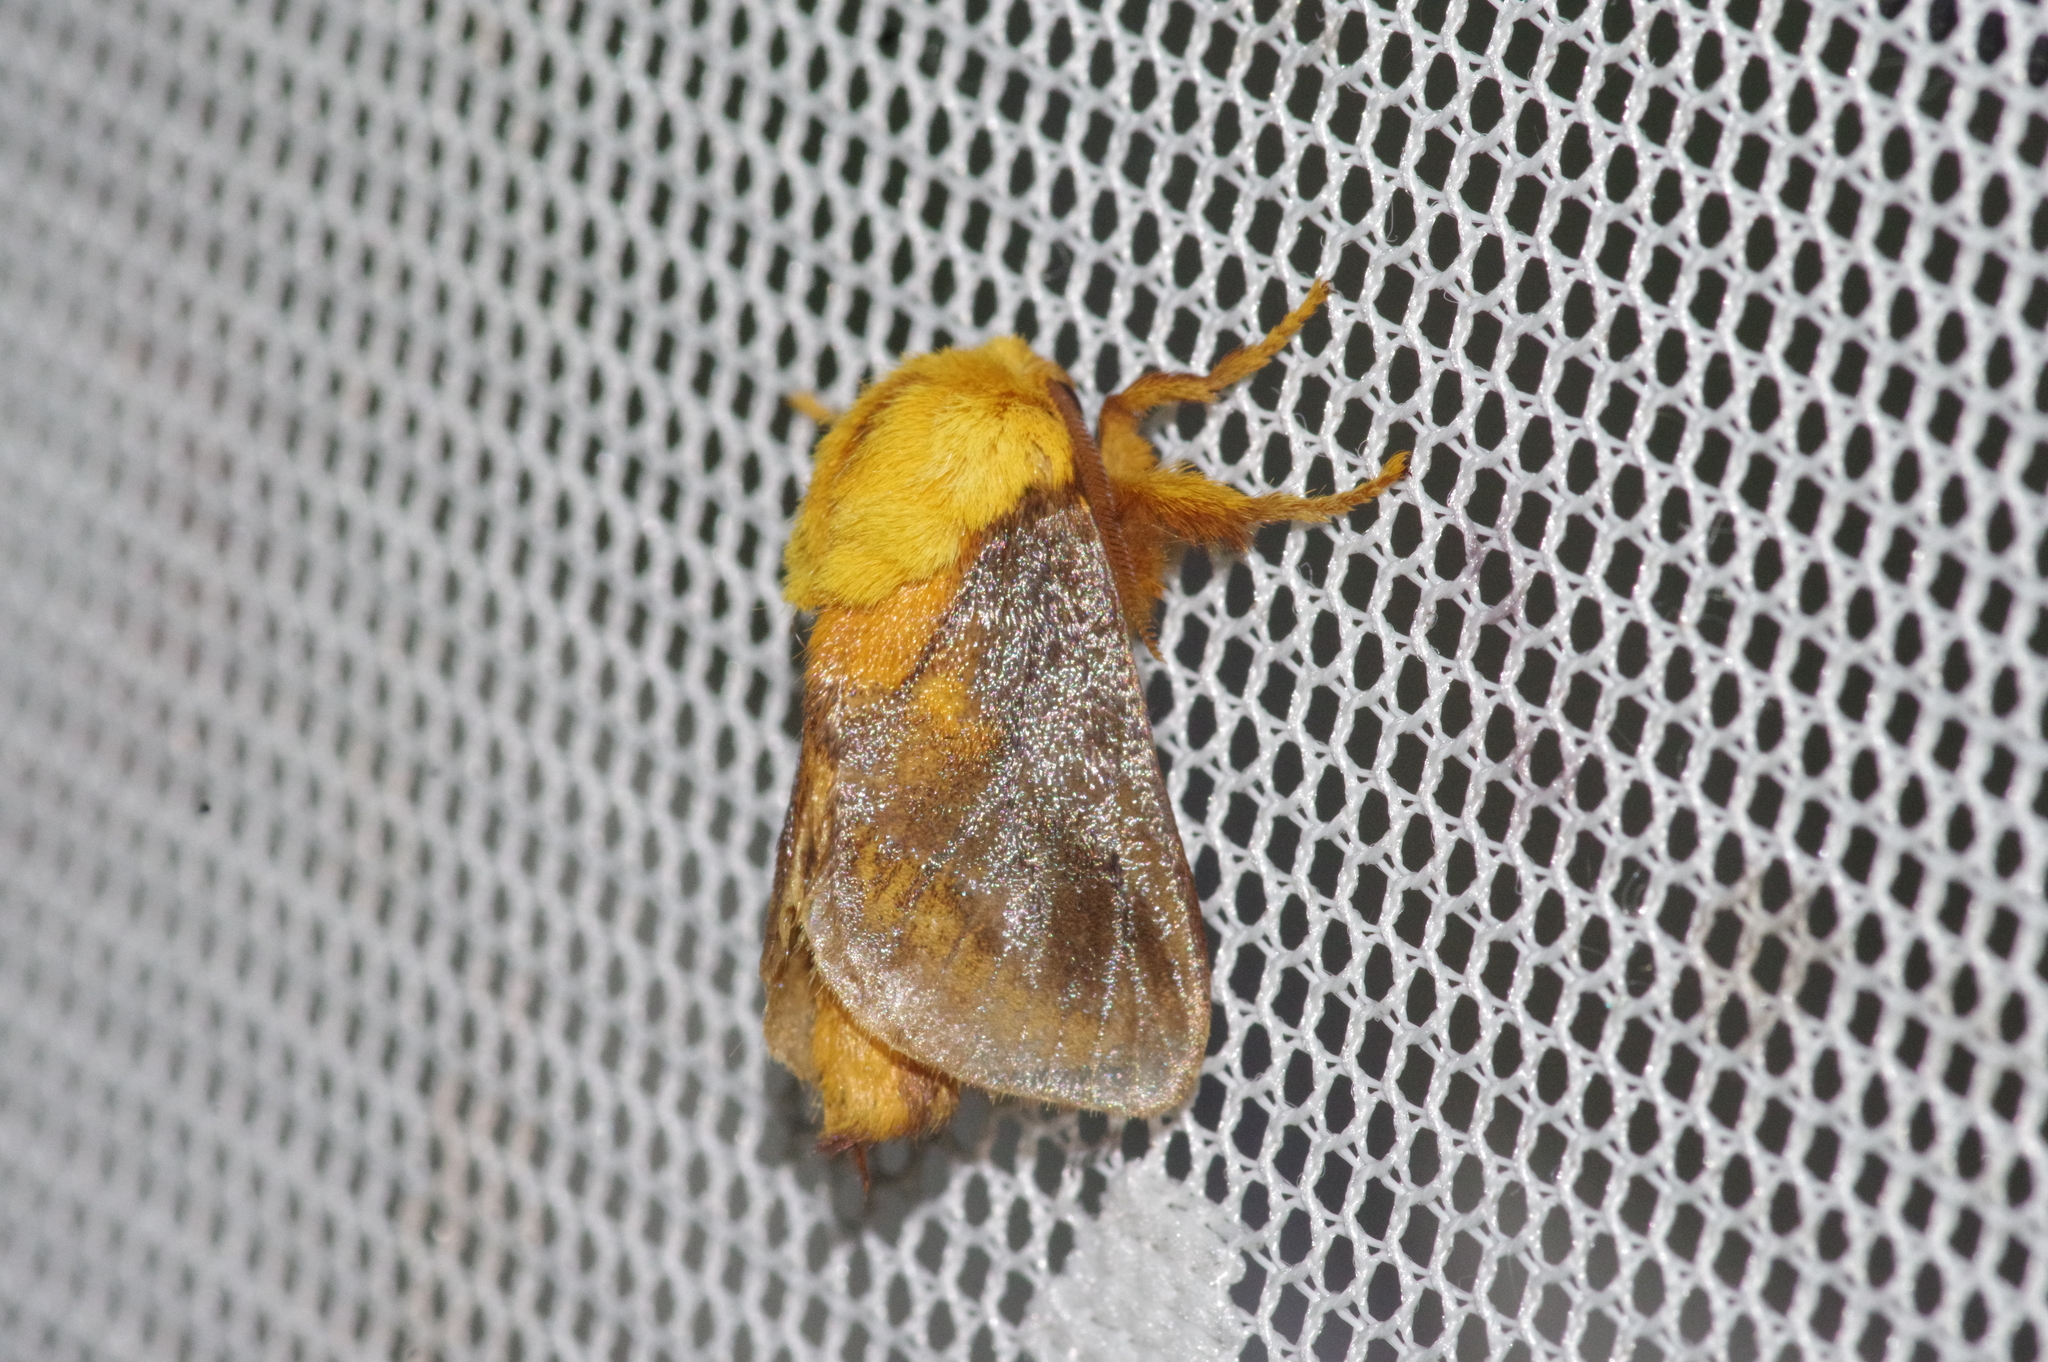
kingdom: Animalia
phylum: Arthropoda
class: Insecta
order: Lepidoptera
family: Limacodidae
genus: Narosoideus
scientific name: Narosoideus flavidorsalis
